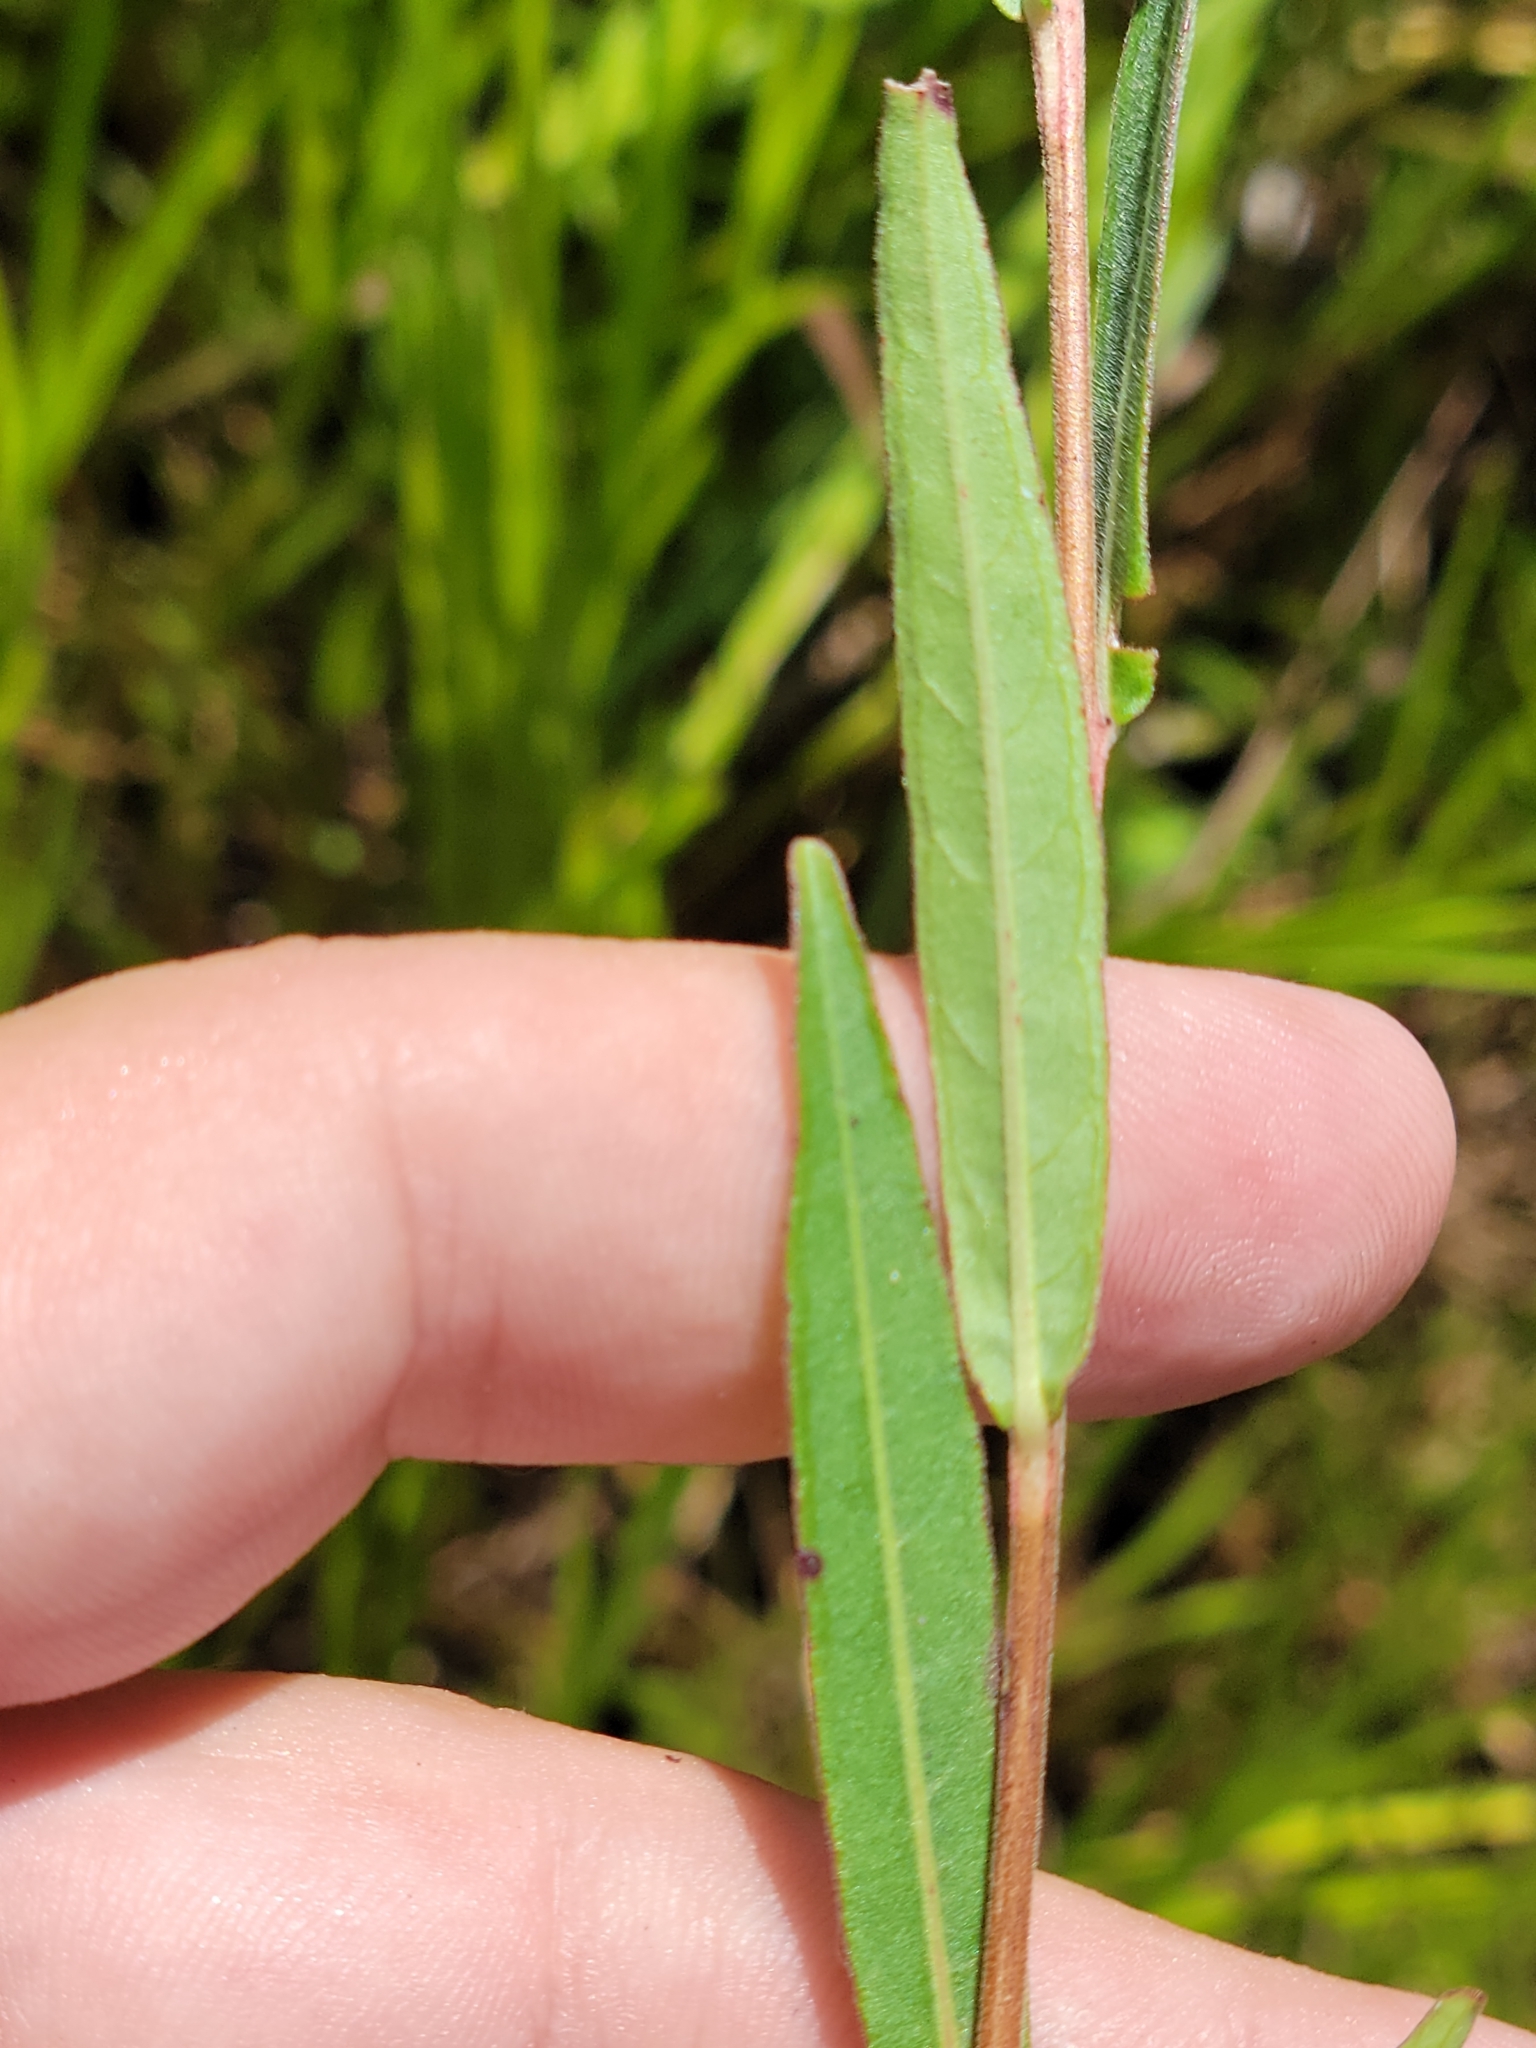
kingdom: Plantae
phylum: Tracheophyta
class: Magnoliopsida
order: Myrtales
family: Onagraceae
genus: Ludwigia
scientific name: Ludwigia maritima
